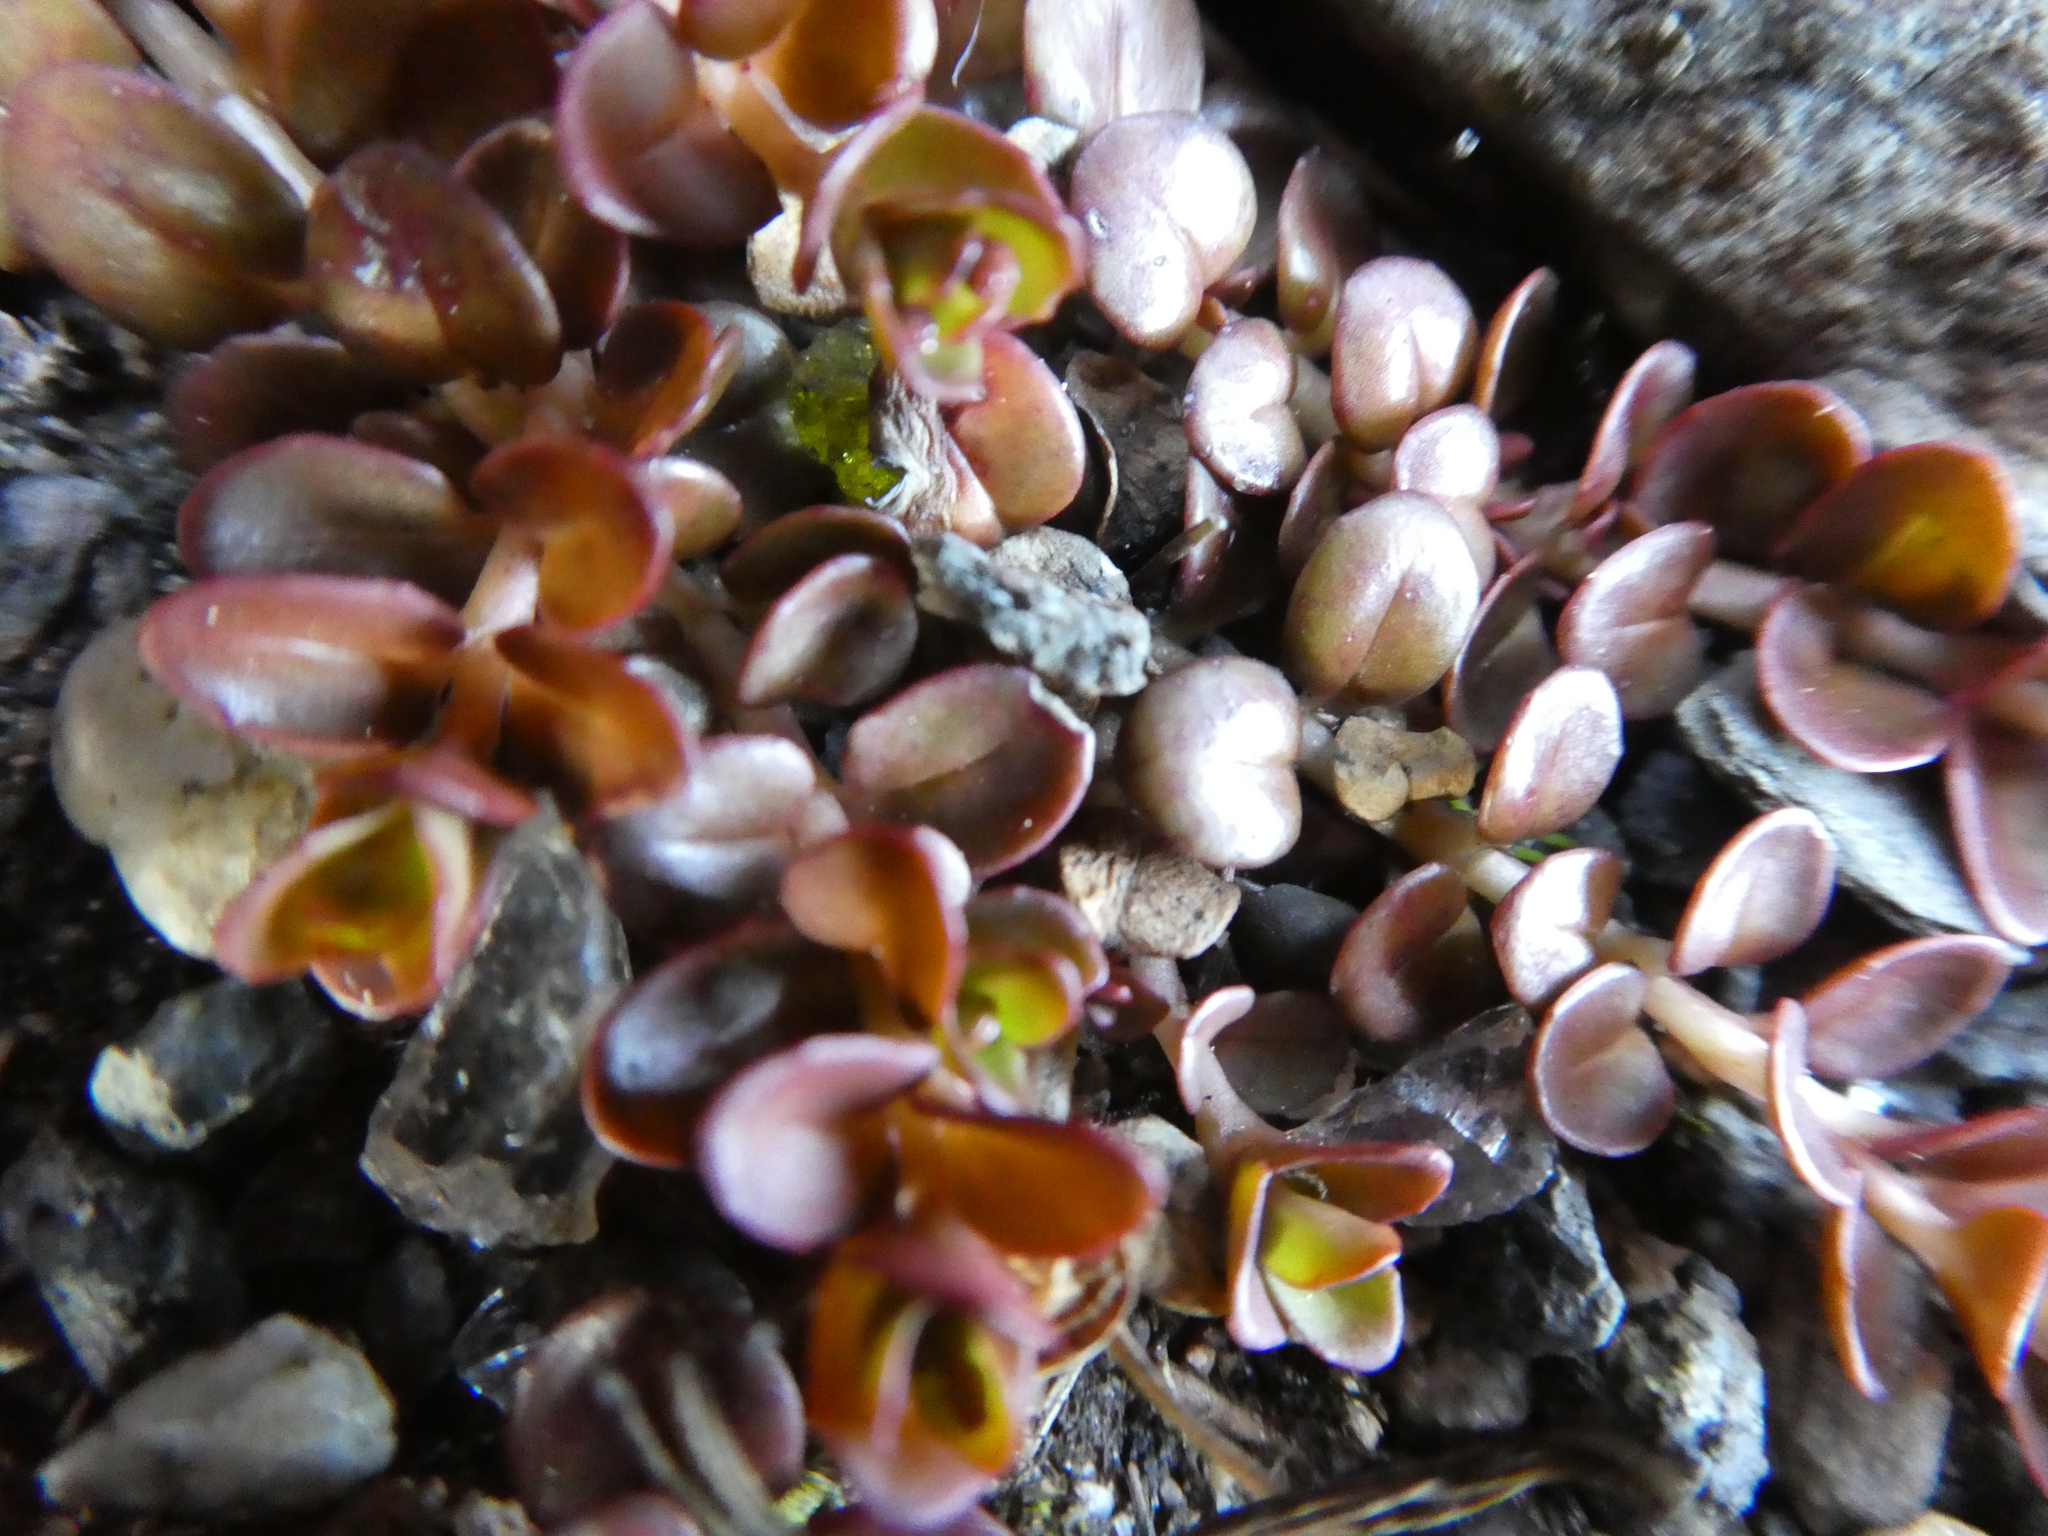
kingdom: Plantae
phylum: Tracheophyta
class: Magnoliopsida
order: Myrtales
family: Onagraceae
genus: Epilobium
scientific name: Epilobium brunnescens
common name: New zealand willowherb
